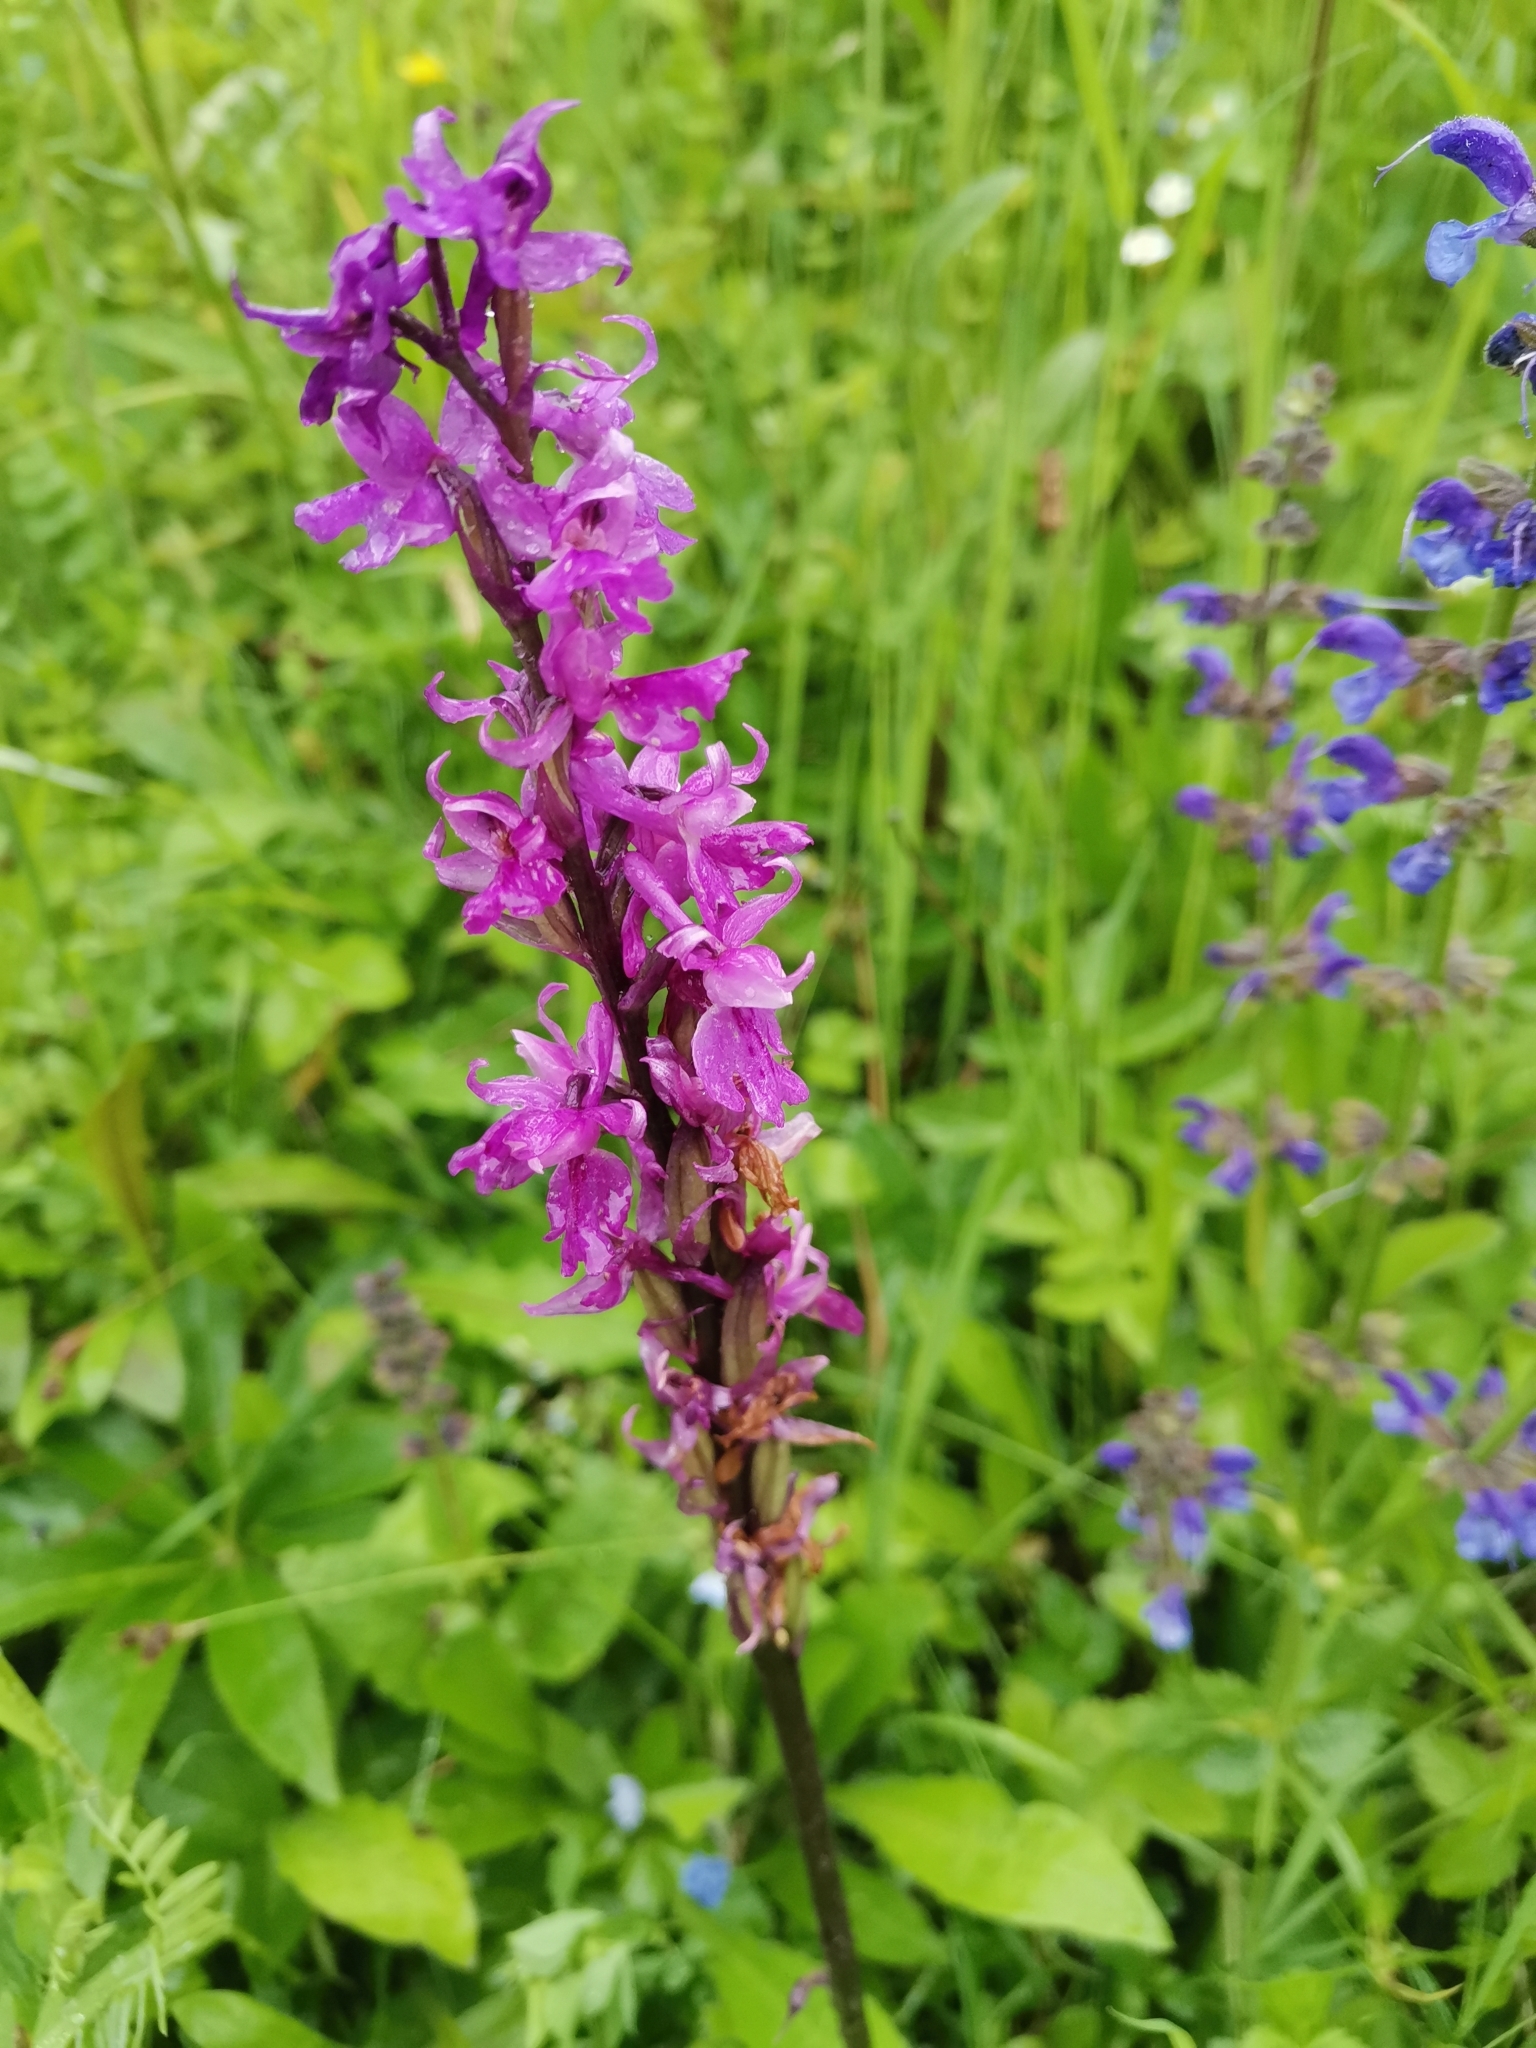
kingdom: Plantae
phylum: Tracheophyta
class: Liliopsida
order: Asparagales
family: Orchidaceae
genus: Orchis
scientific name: Orchis mascula
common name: Early-purple orchid
